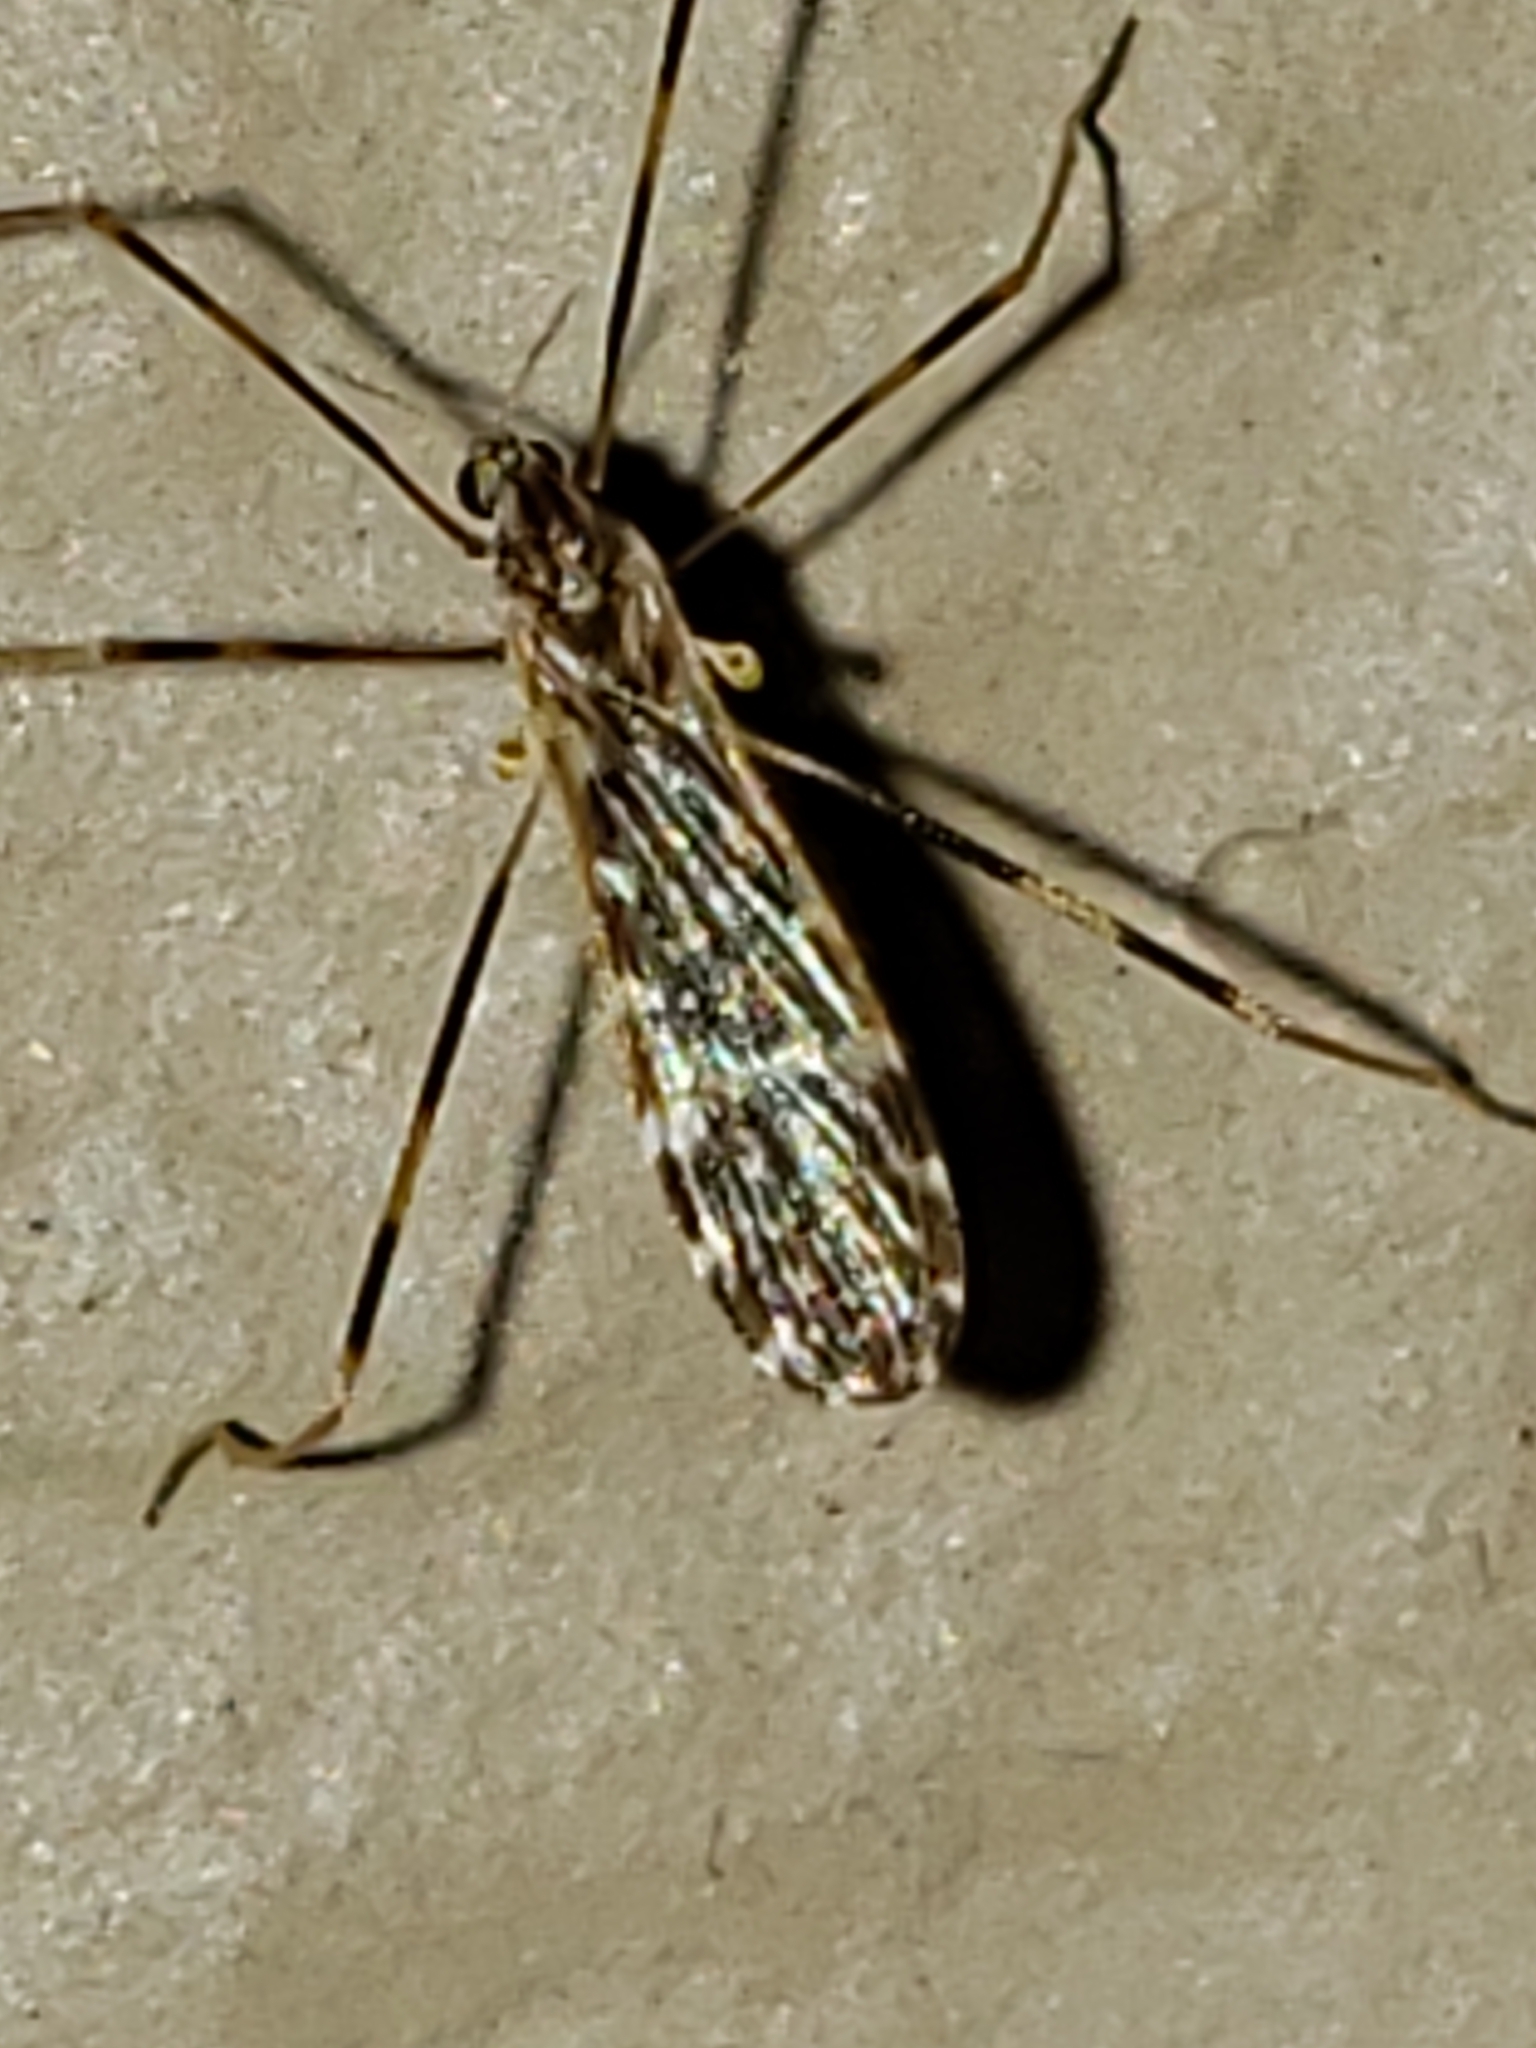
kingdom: Animalia
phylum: Arthropoda
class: Insecta
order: Diptera
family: Limoniidae
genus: Erioptera
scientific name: Erioptera caliptera
